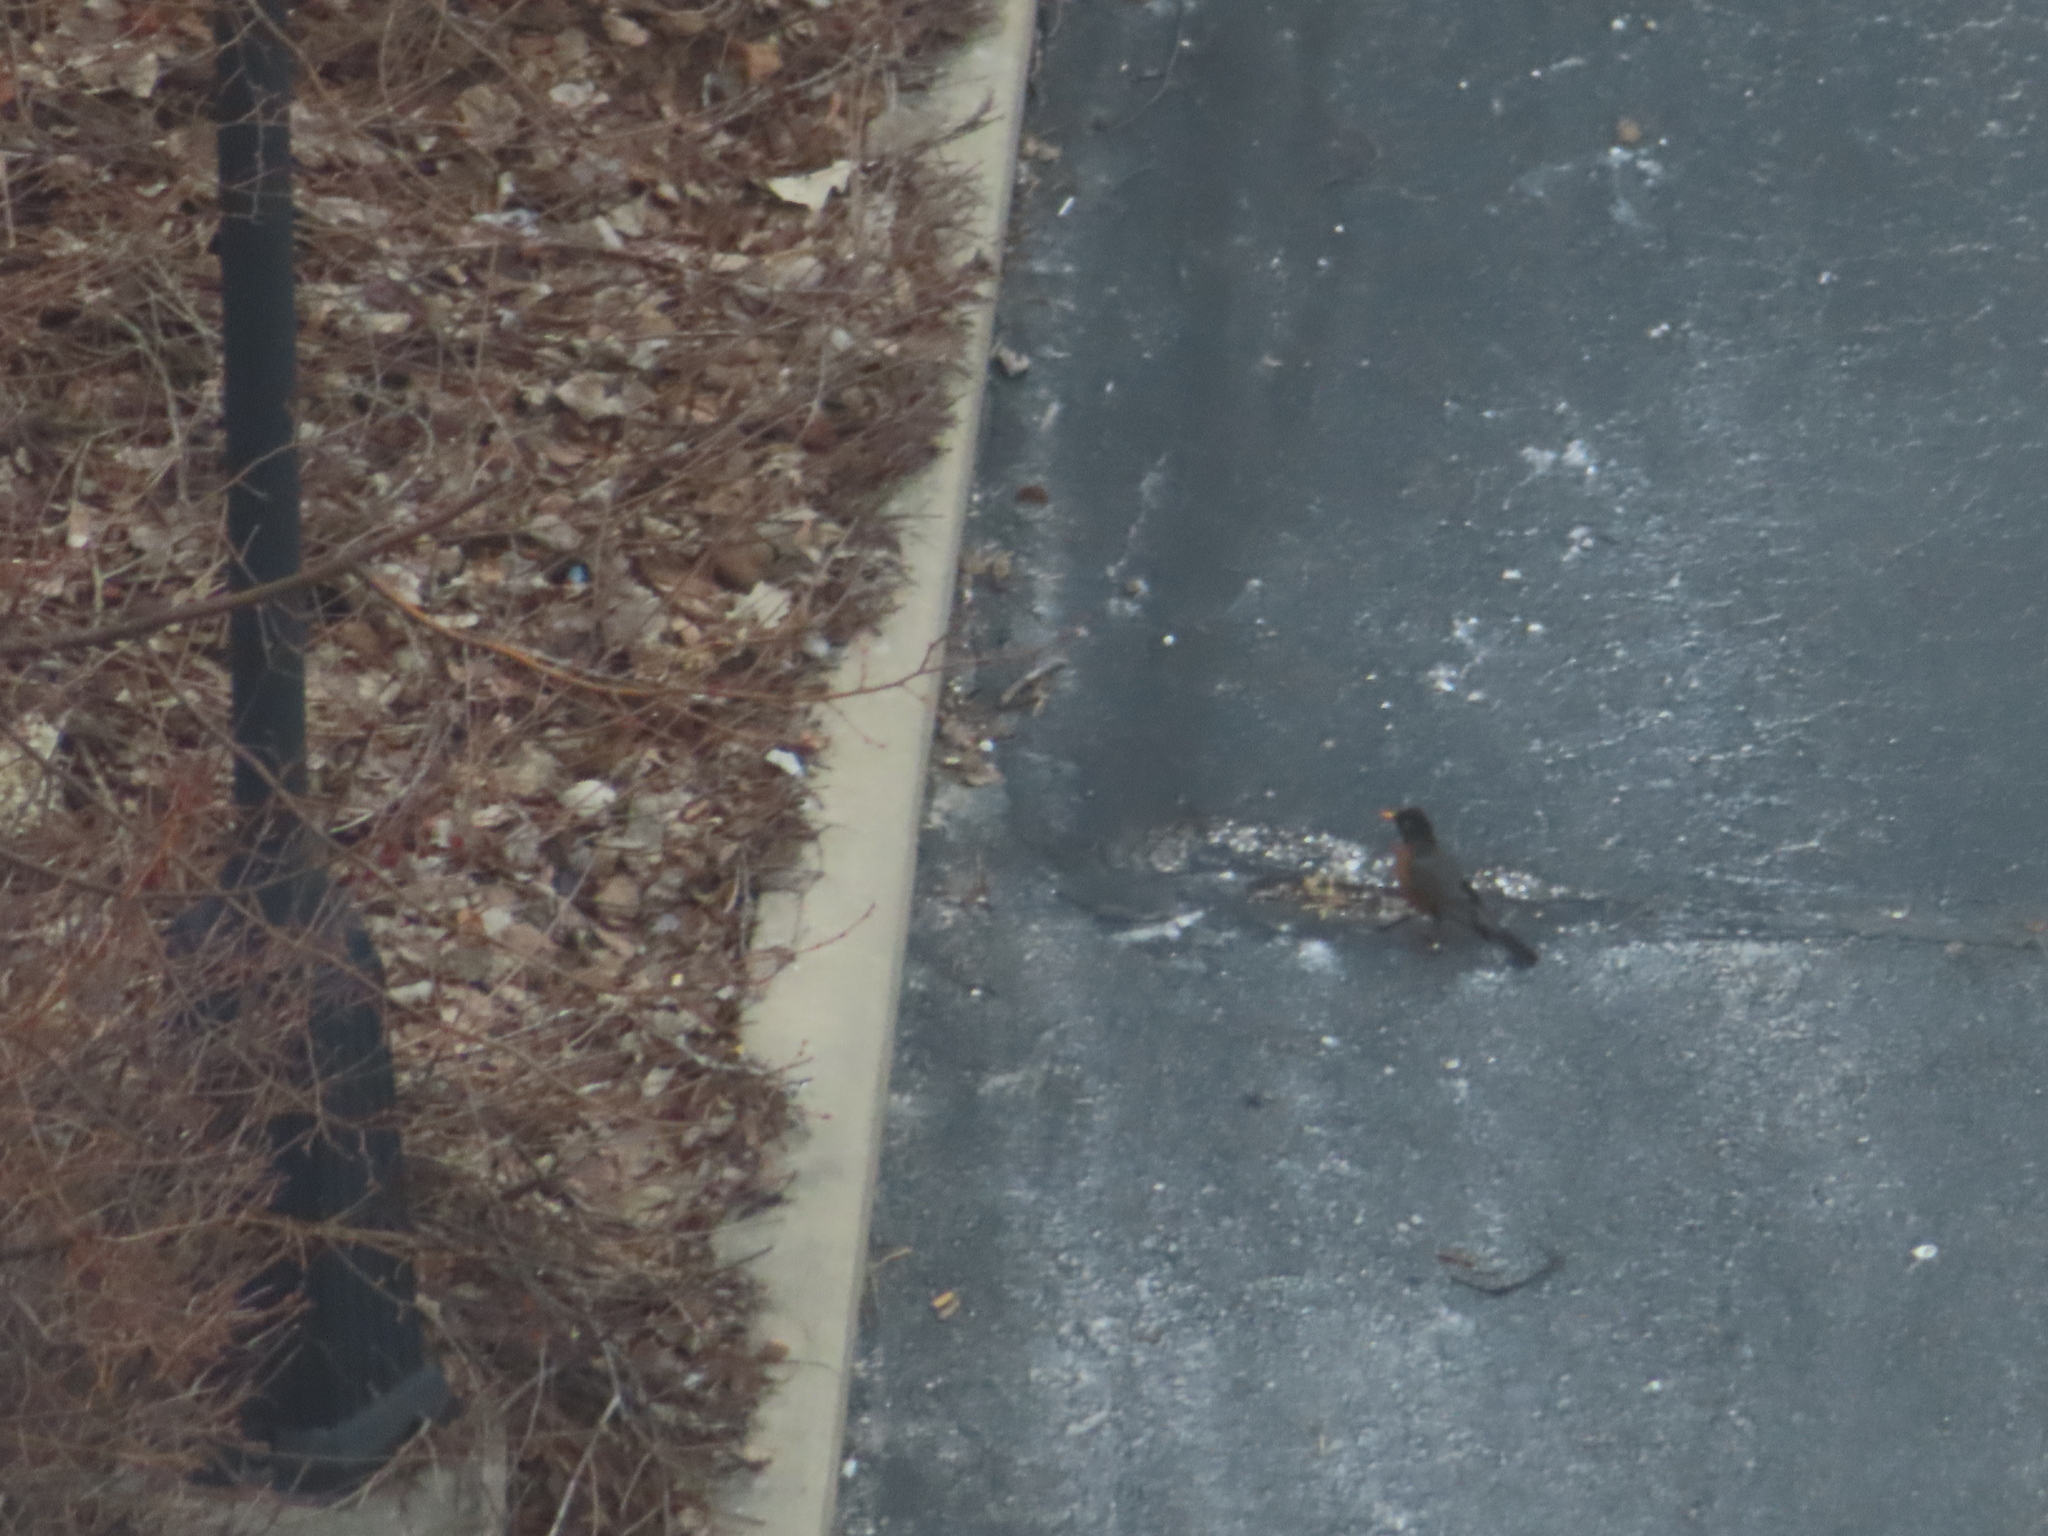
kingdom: Animalia
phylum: Chordata
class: Aves
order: Passeriformes
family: Turdidae
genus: Turdus
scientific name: Turdus migratorius
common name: American robin
